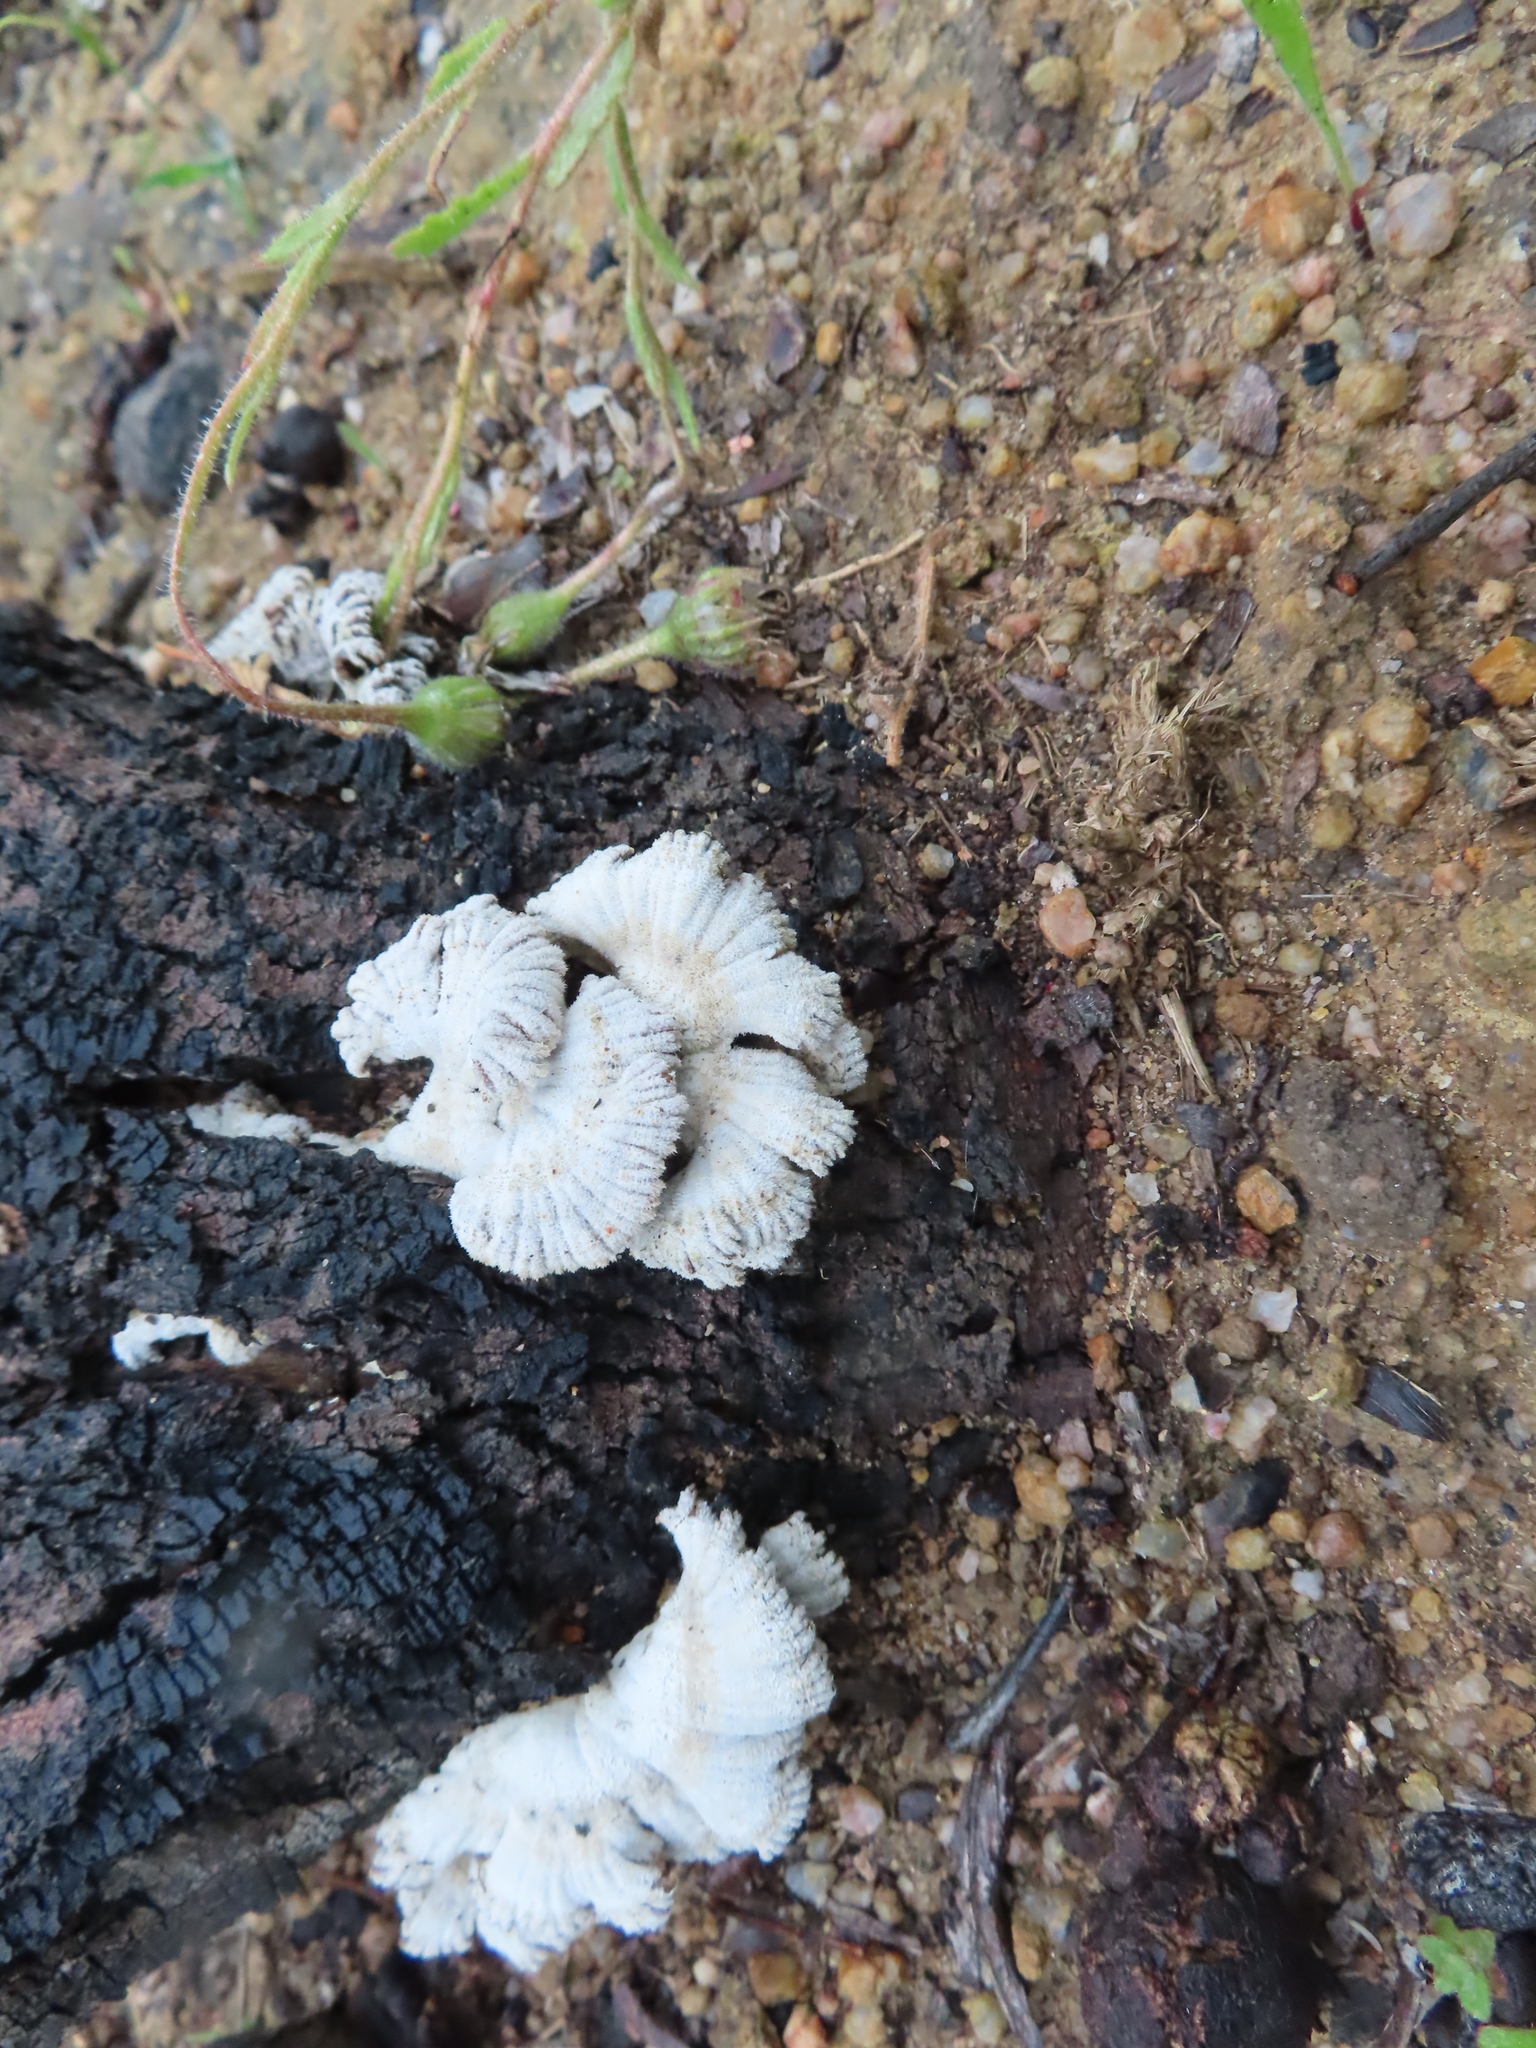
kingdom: Fungi
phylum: Basidiomycota
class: Agaricomycetes
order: Agaricales
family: Schizophyllaceae
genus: Schizophyllum
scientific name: Schizophyllum commune
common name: Common porecrust
